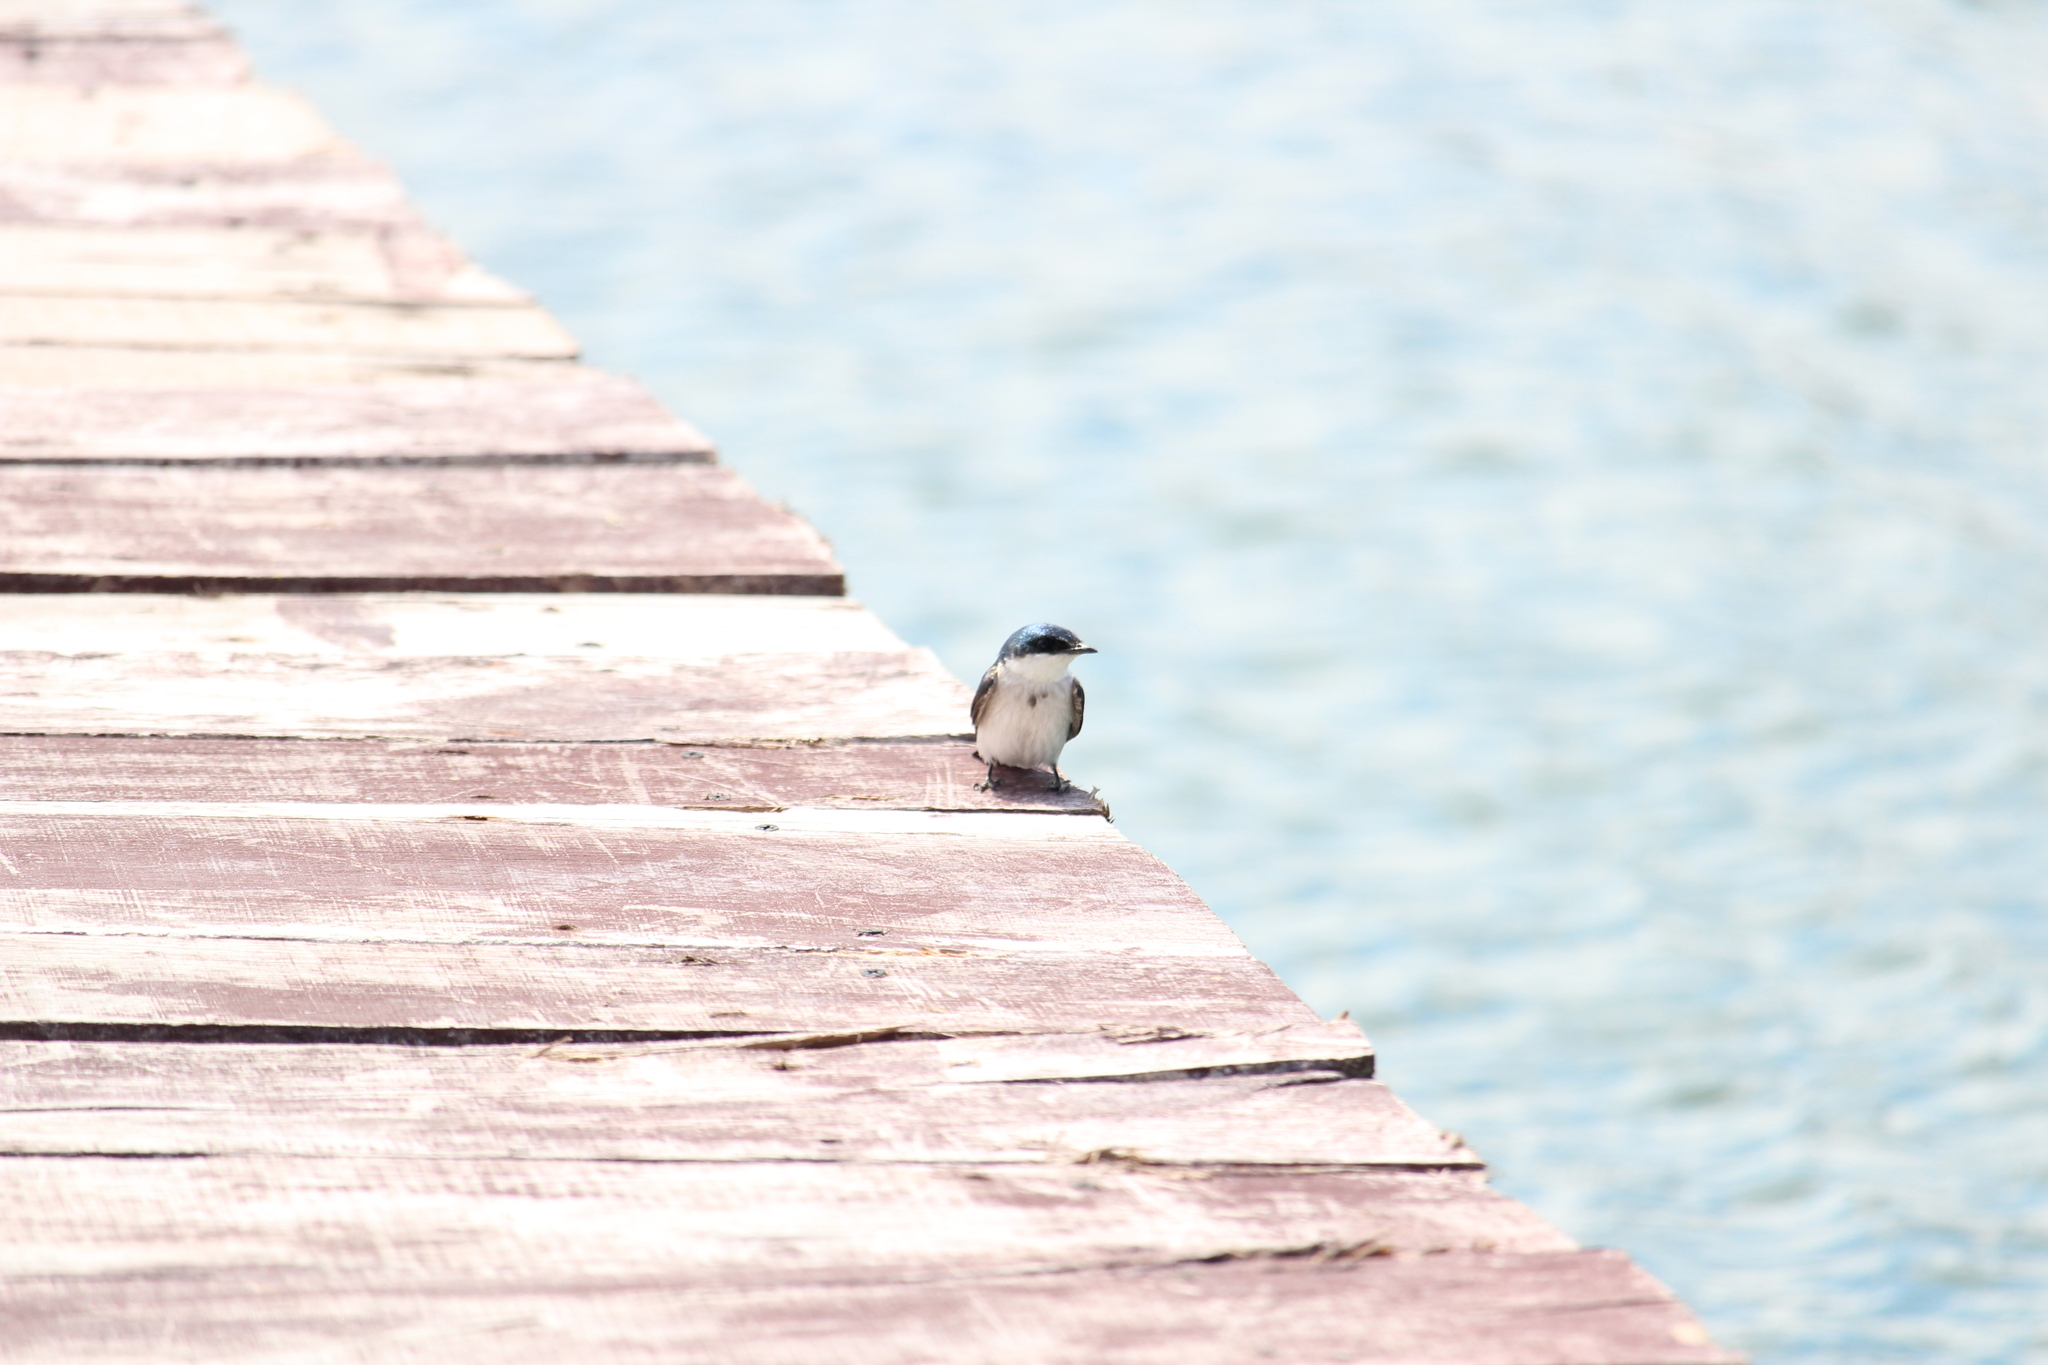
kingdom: Animalia
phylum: Chordata
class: Aves
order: Passeriformes
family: Hirundinidae
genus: Tachycineta
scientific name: Tachycineta albilinea
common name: Mangrove swallow
